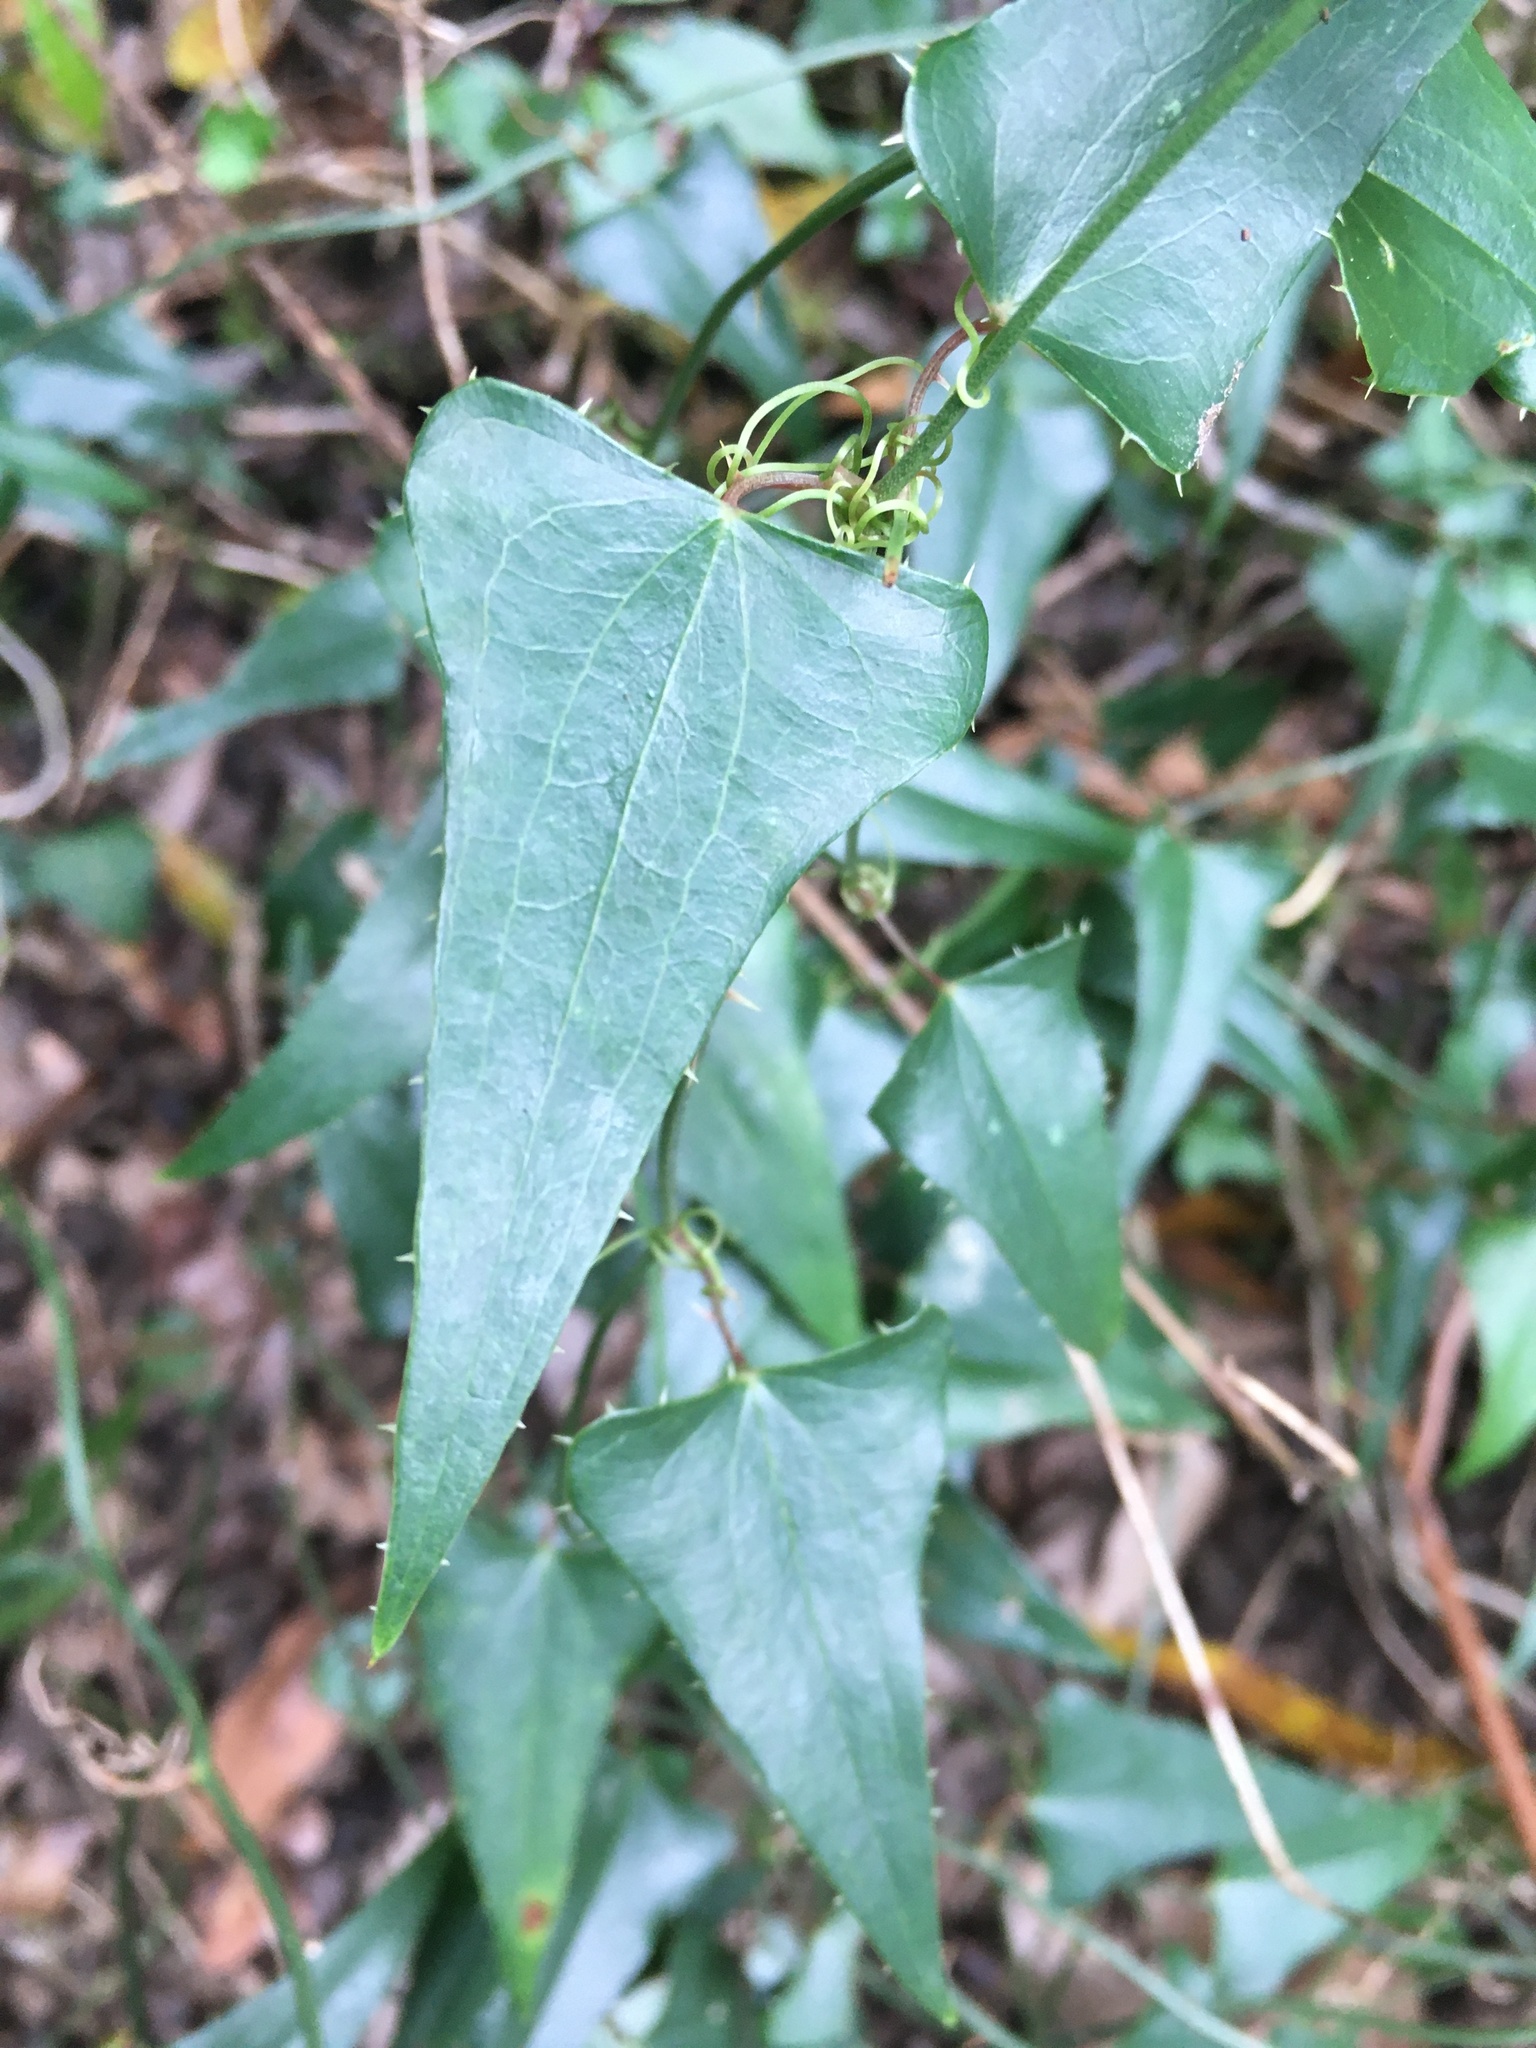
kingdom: Plantae
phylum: Tracheophyta
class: Liliopsida
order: Liliales
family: Smilacaceae
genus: Smilax
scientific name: Smilax aspera
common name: Common smilax
